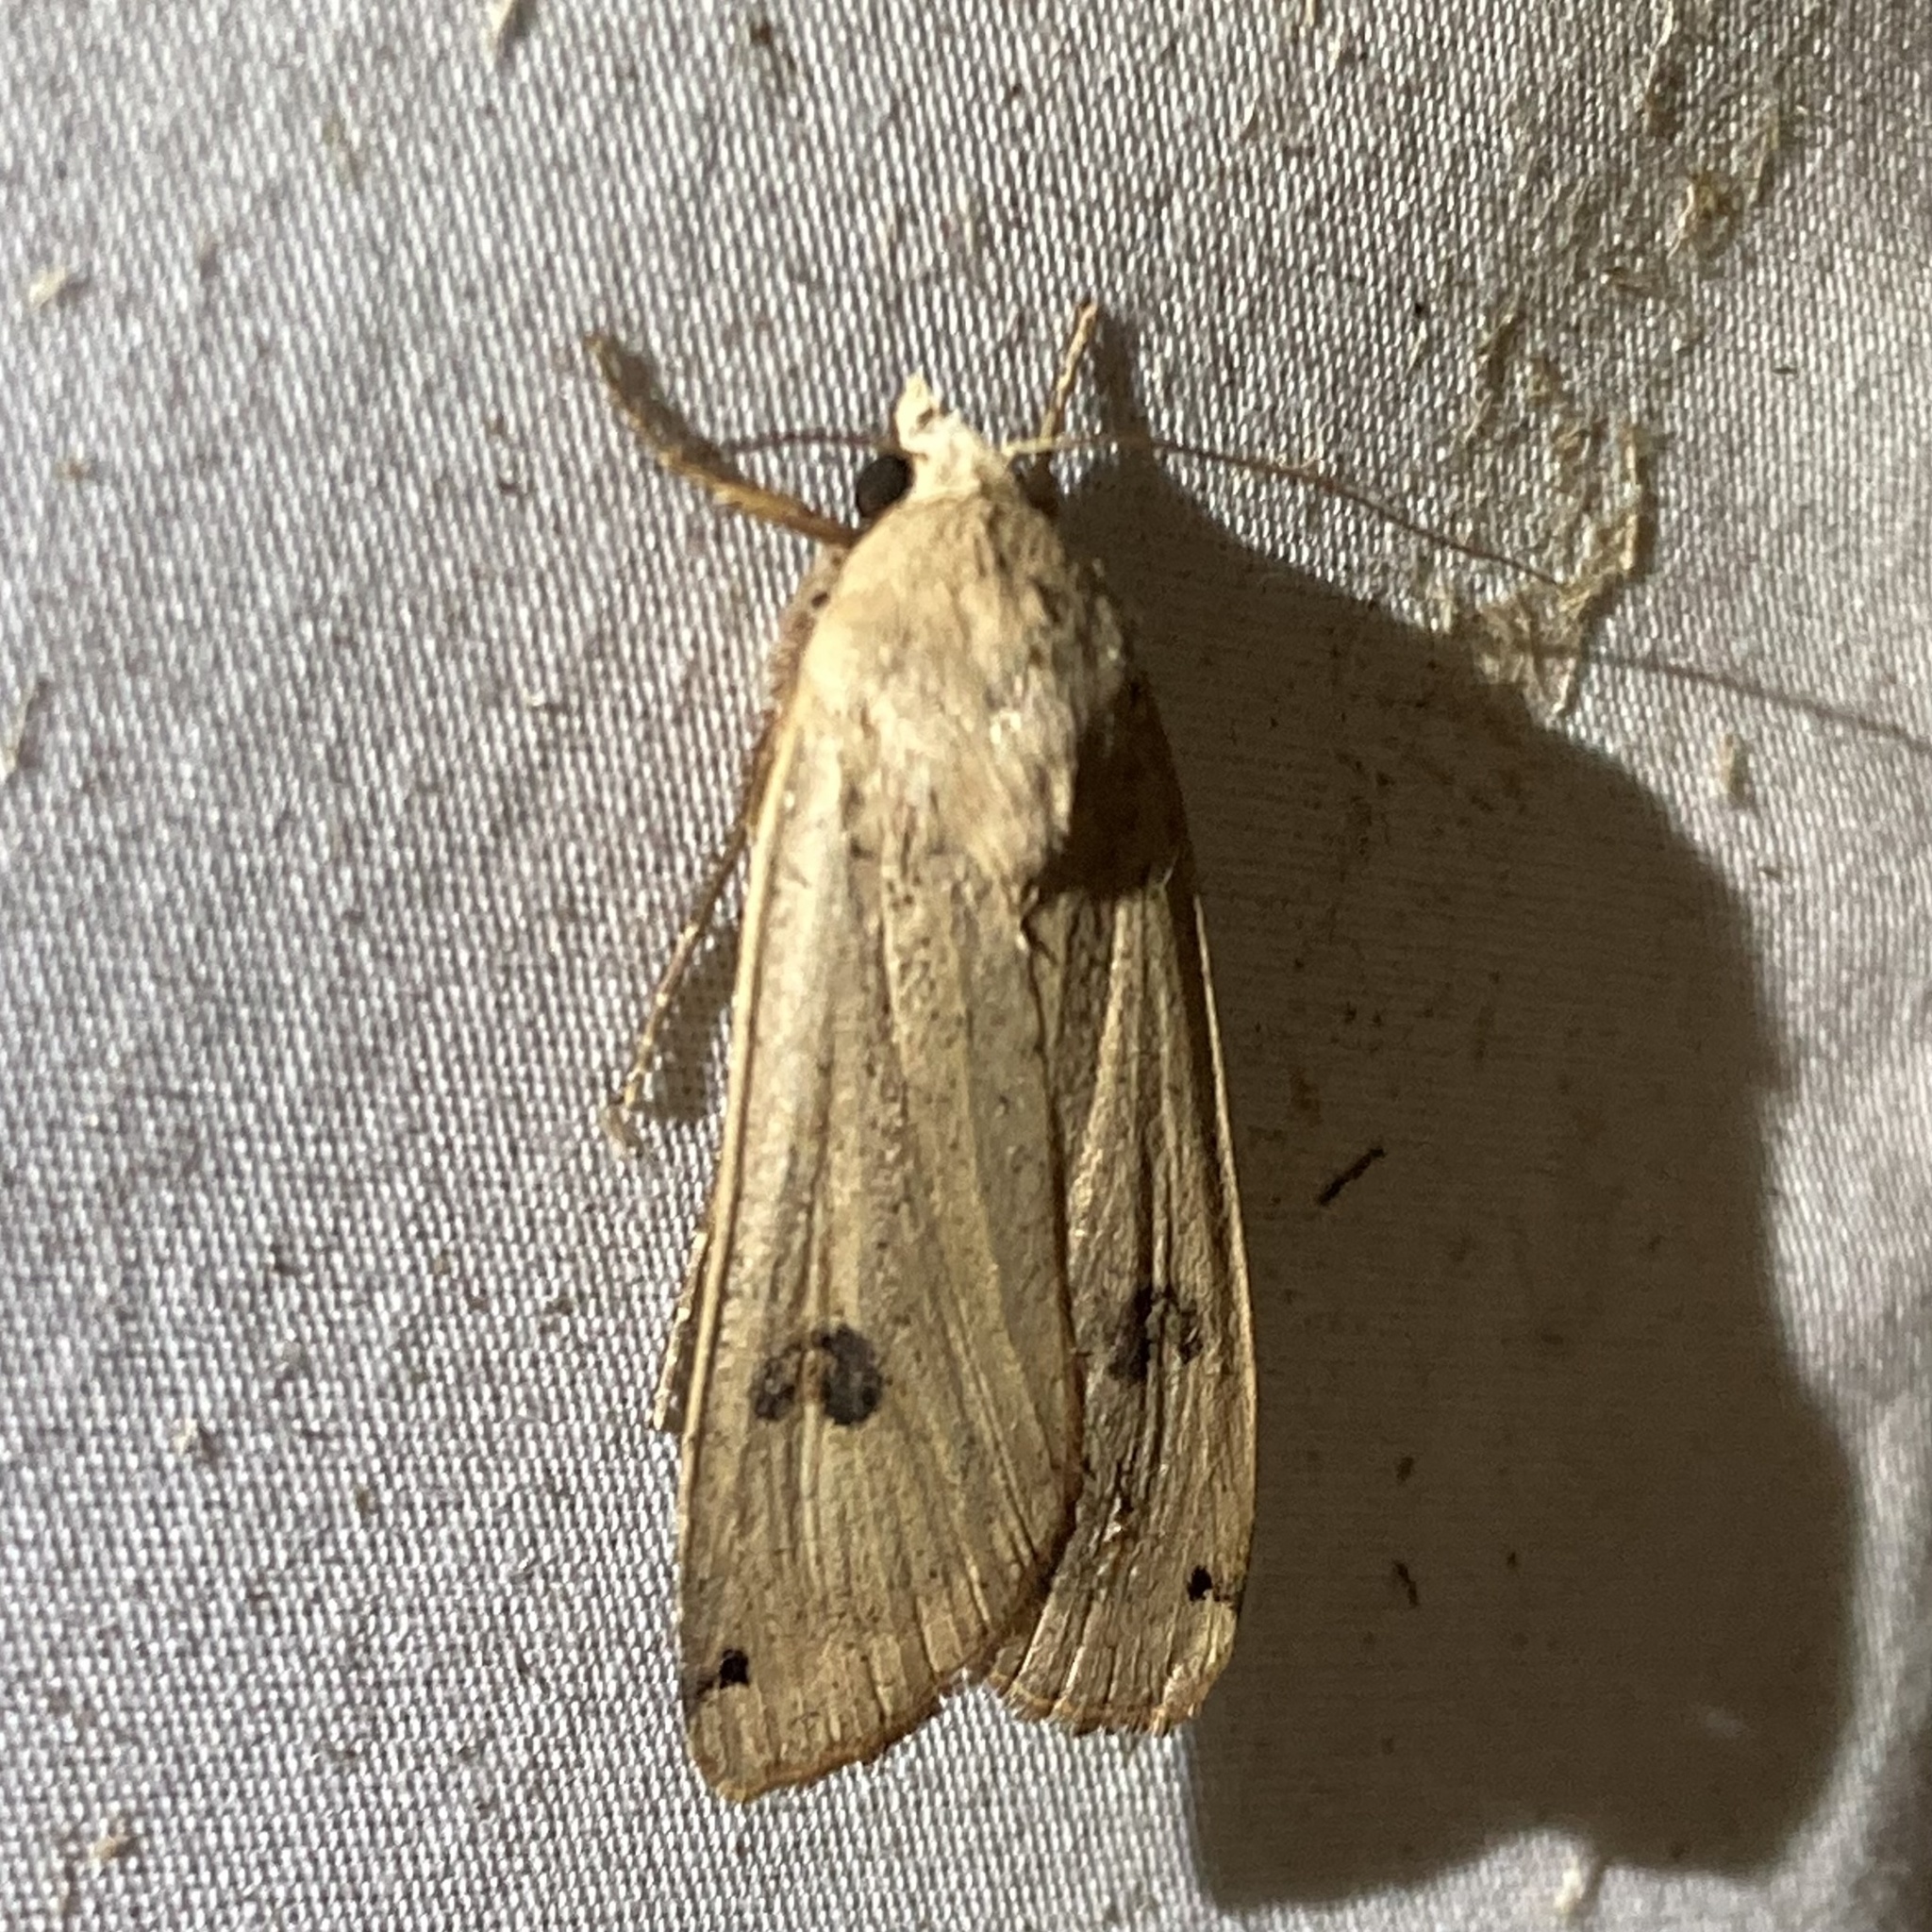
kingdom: Animalia
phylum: Arthropoda
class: Insecta
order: Lepidoptera
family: Noctuidae
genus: Noctua
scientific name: Noctua pronuba
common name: Large yellow underwing
